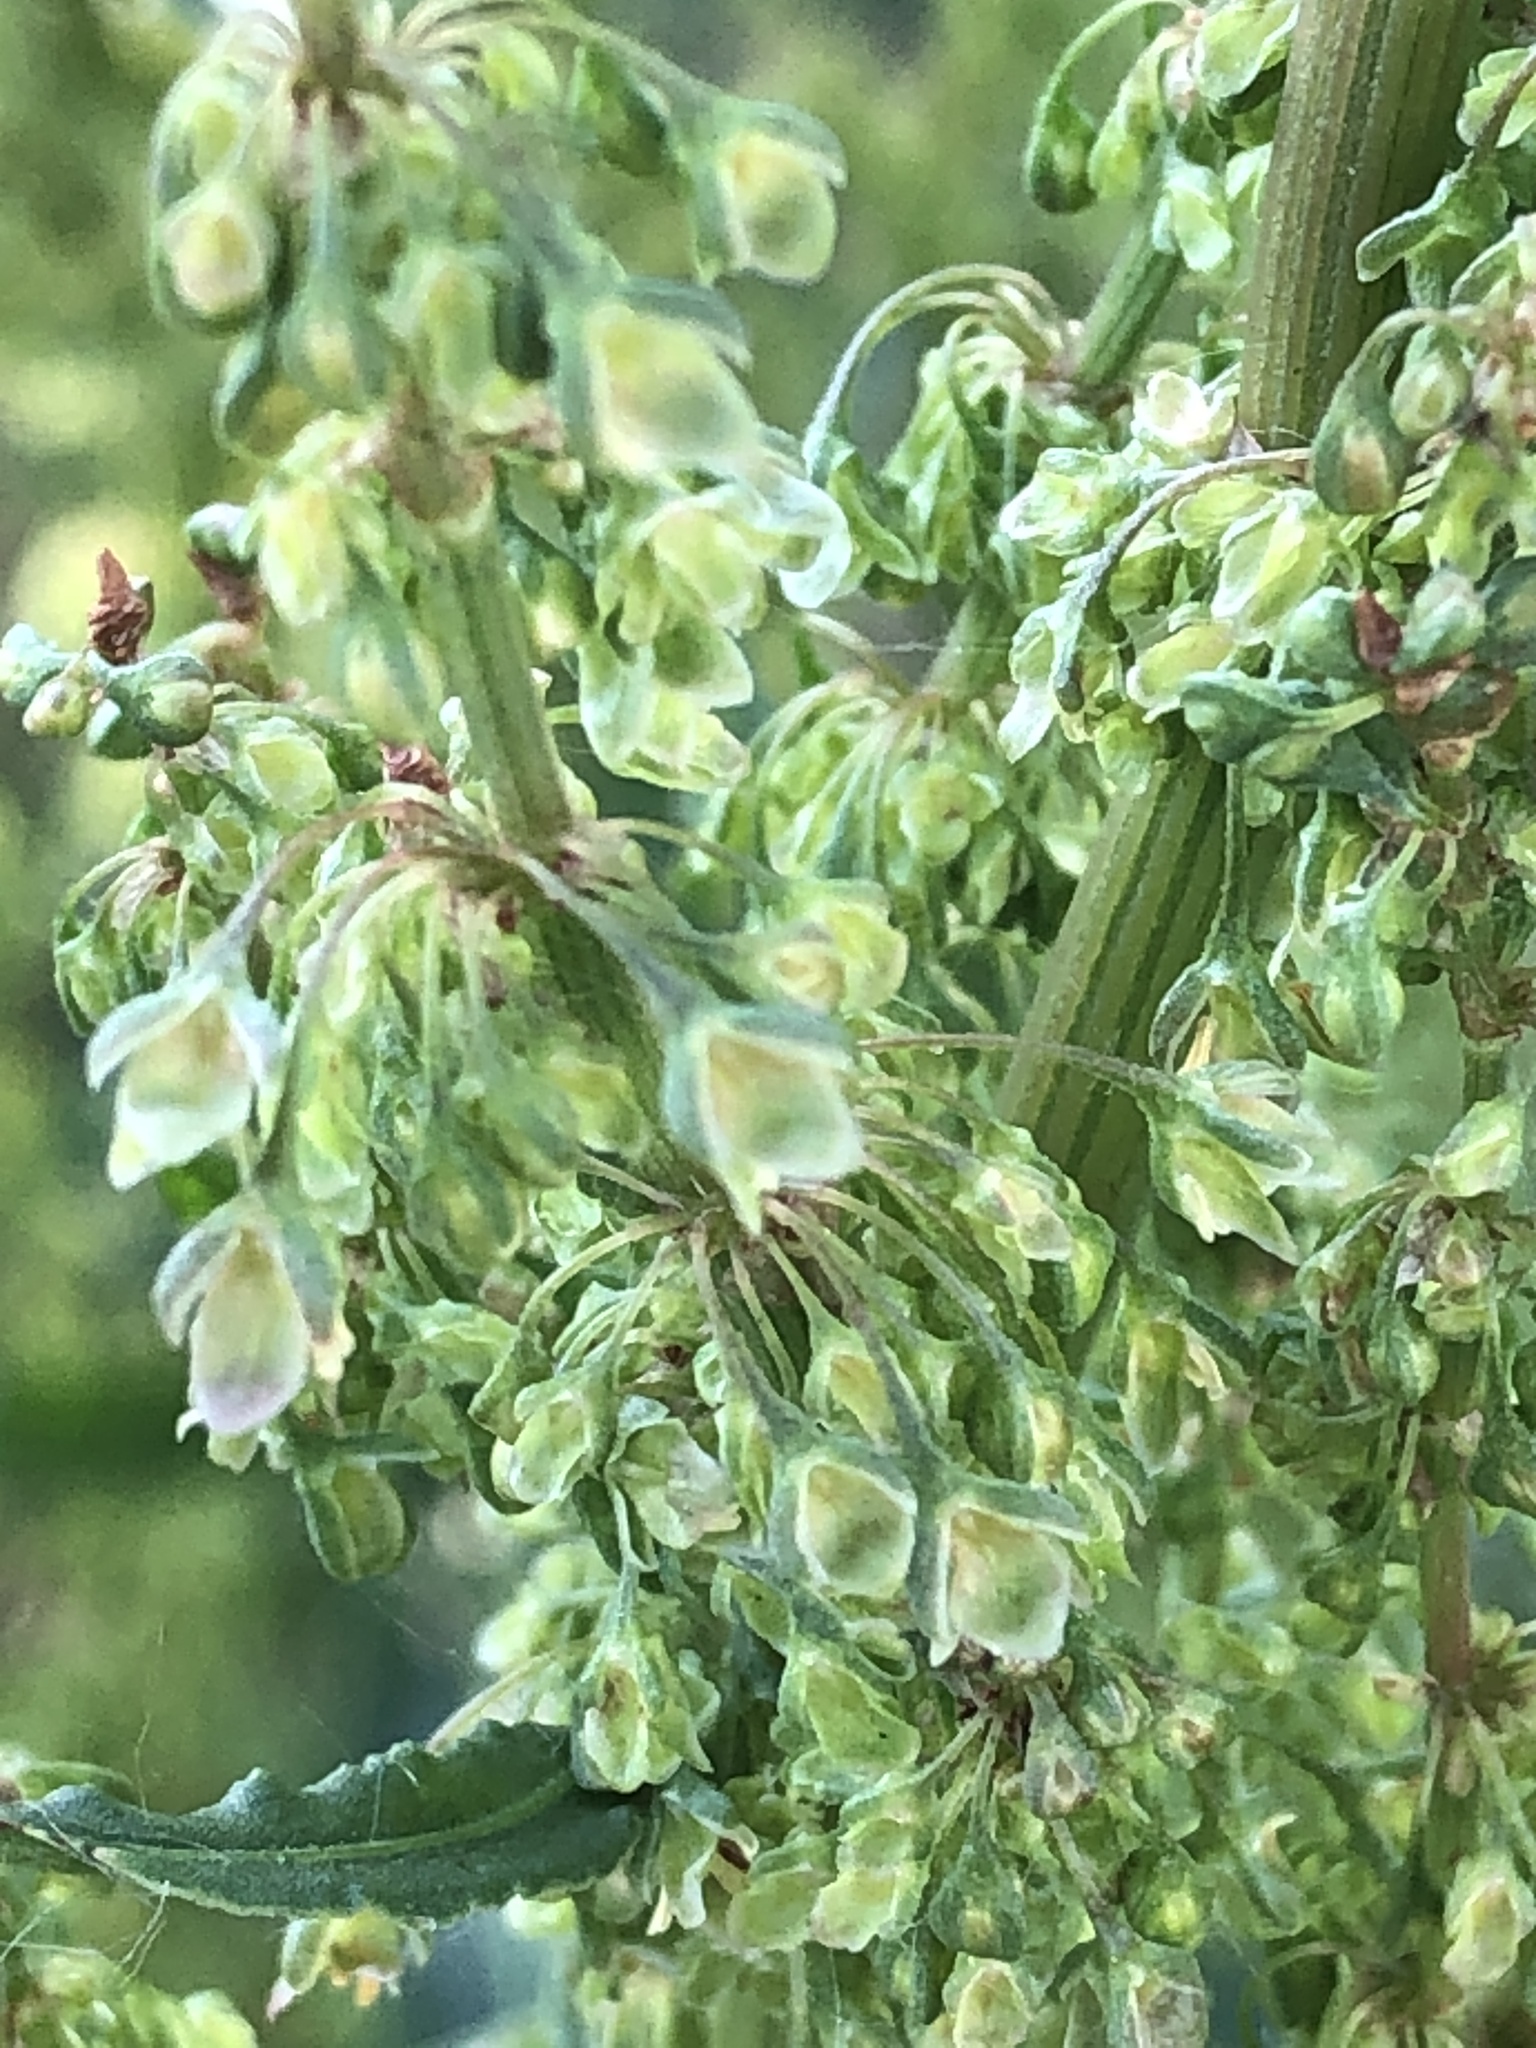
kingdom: Plantae
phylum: Tracheophyta
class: Magnoliopsida
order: Caryophyllales
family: Polygonaceae
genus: Rumex
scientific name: Rumex crispus
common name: Curled dock
